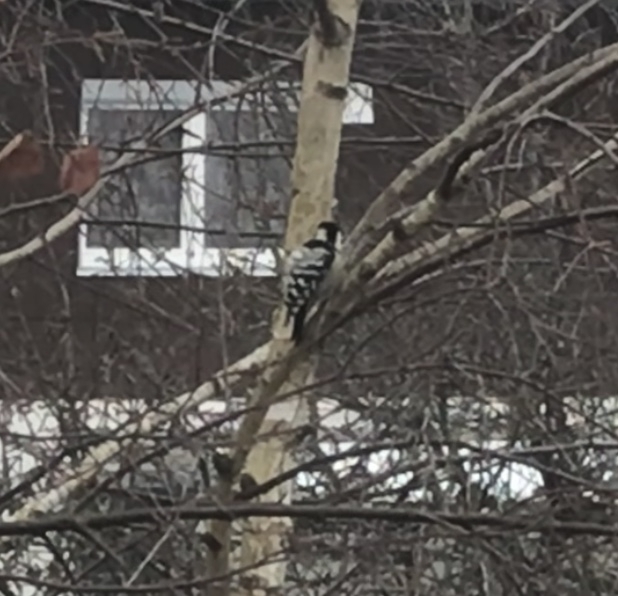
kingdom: Animalia
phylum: Chordata
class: Aves
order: Piciformes
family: Picidae
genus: Dryobates
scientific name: Dryobates minor
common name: Lesser spotted woodpecker
